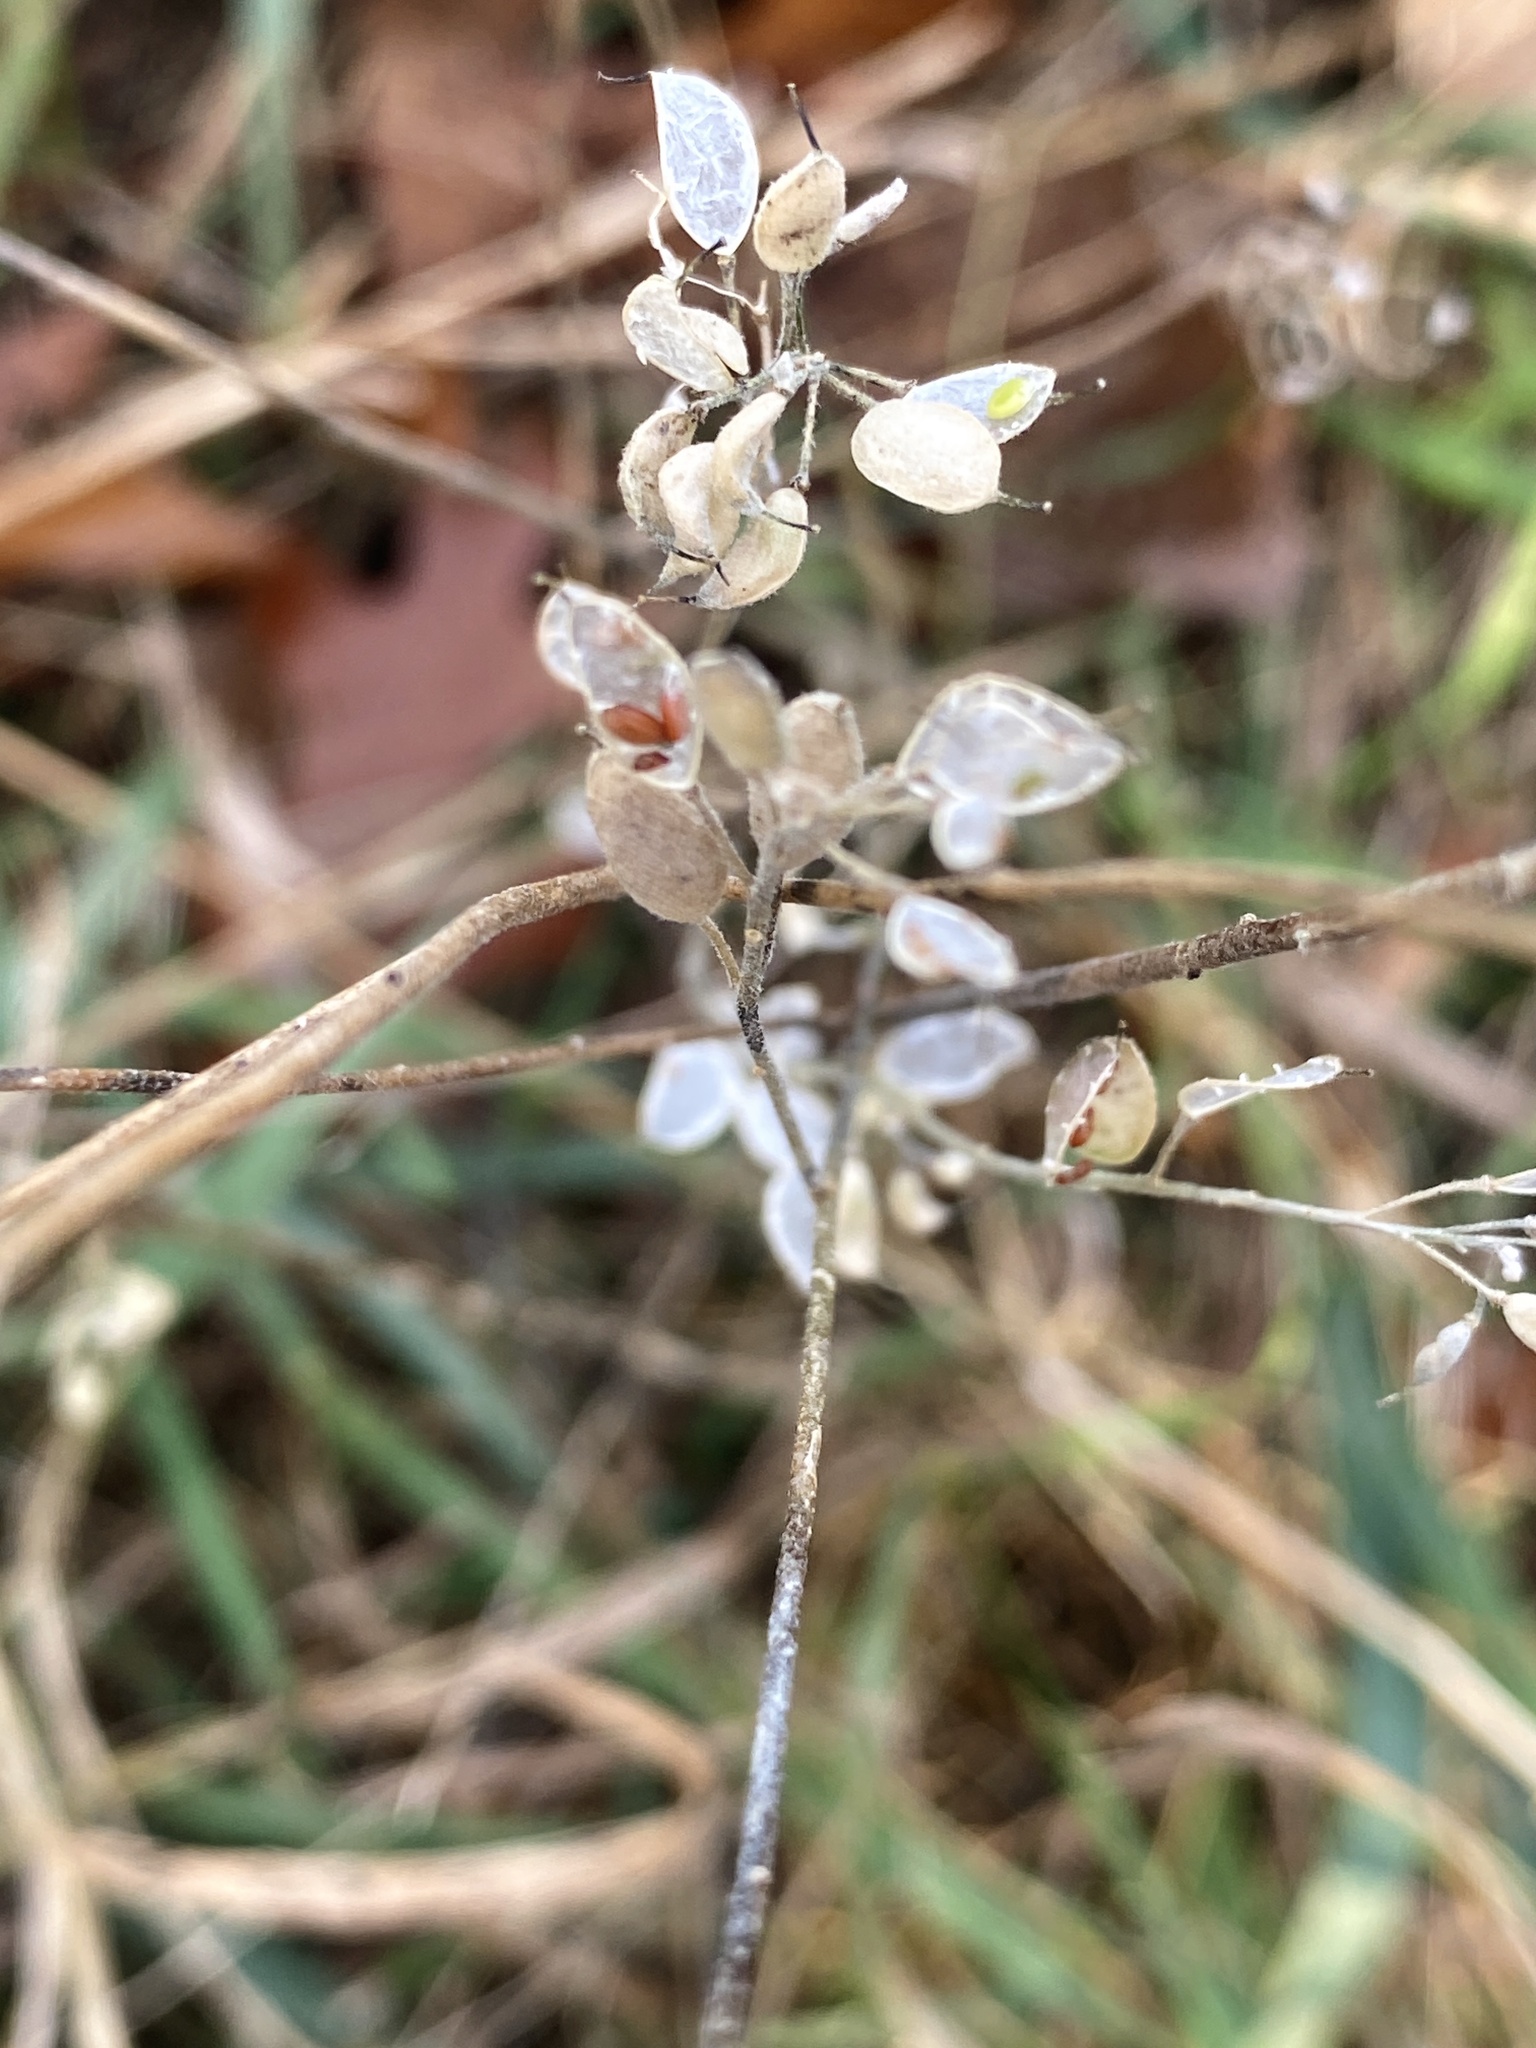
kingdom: Plantae
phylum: Tracheophyta
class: Magnoliopsida
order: Brassicales
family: Brassicaceae
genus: Berteroa
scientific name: Berteroa incana
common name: Hoary alison
